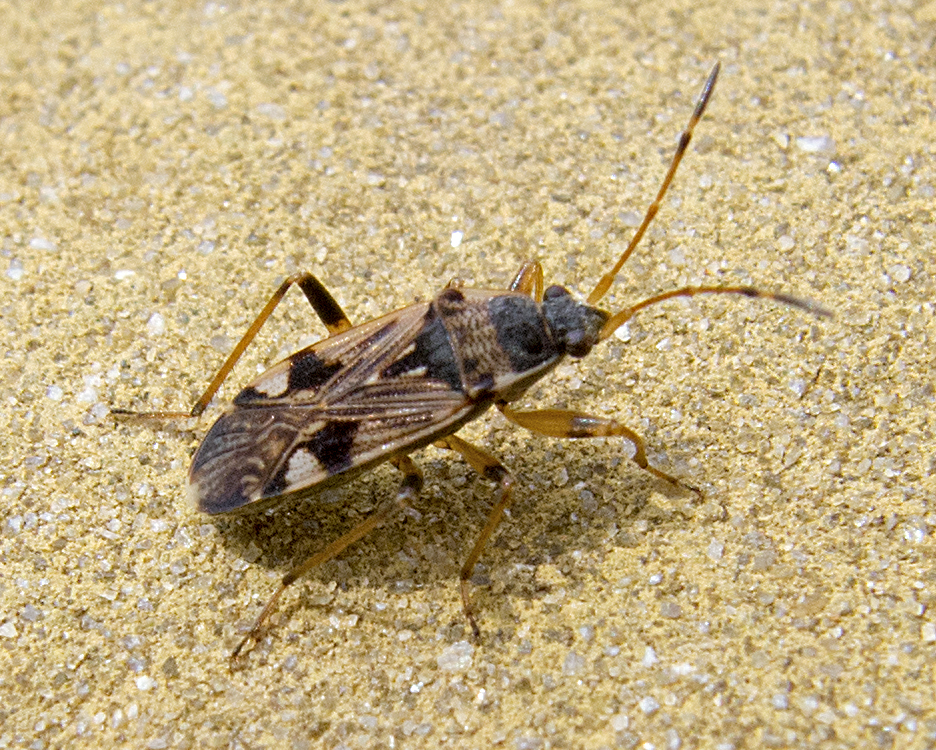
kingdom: Animalia
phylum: Arthropoda
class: Insecta
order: Hemiptera
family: Rhyparochromidae
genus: Beosus
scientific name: Beosus maritimus
